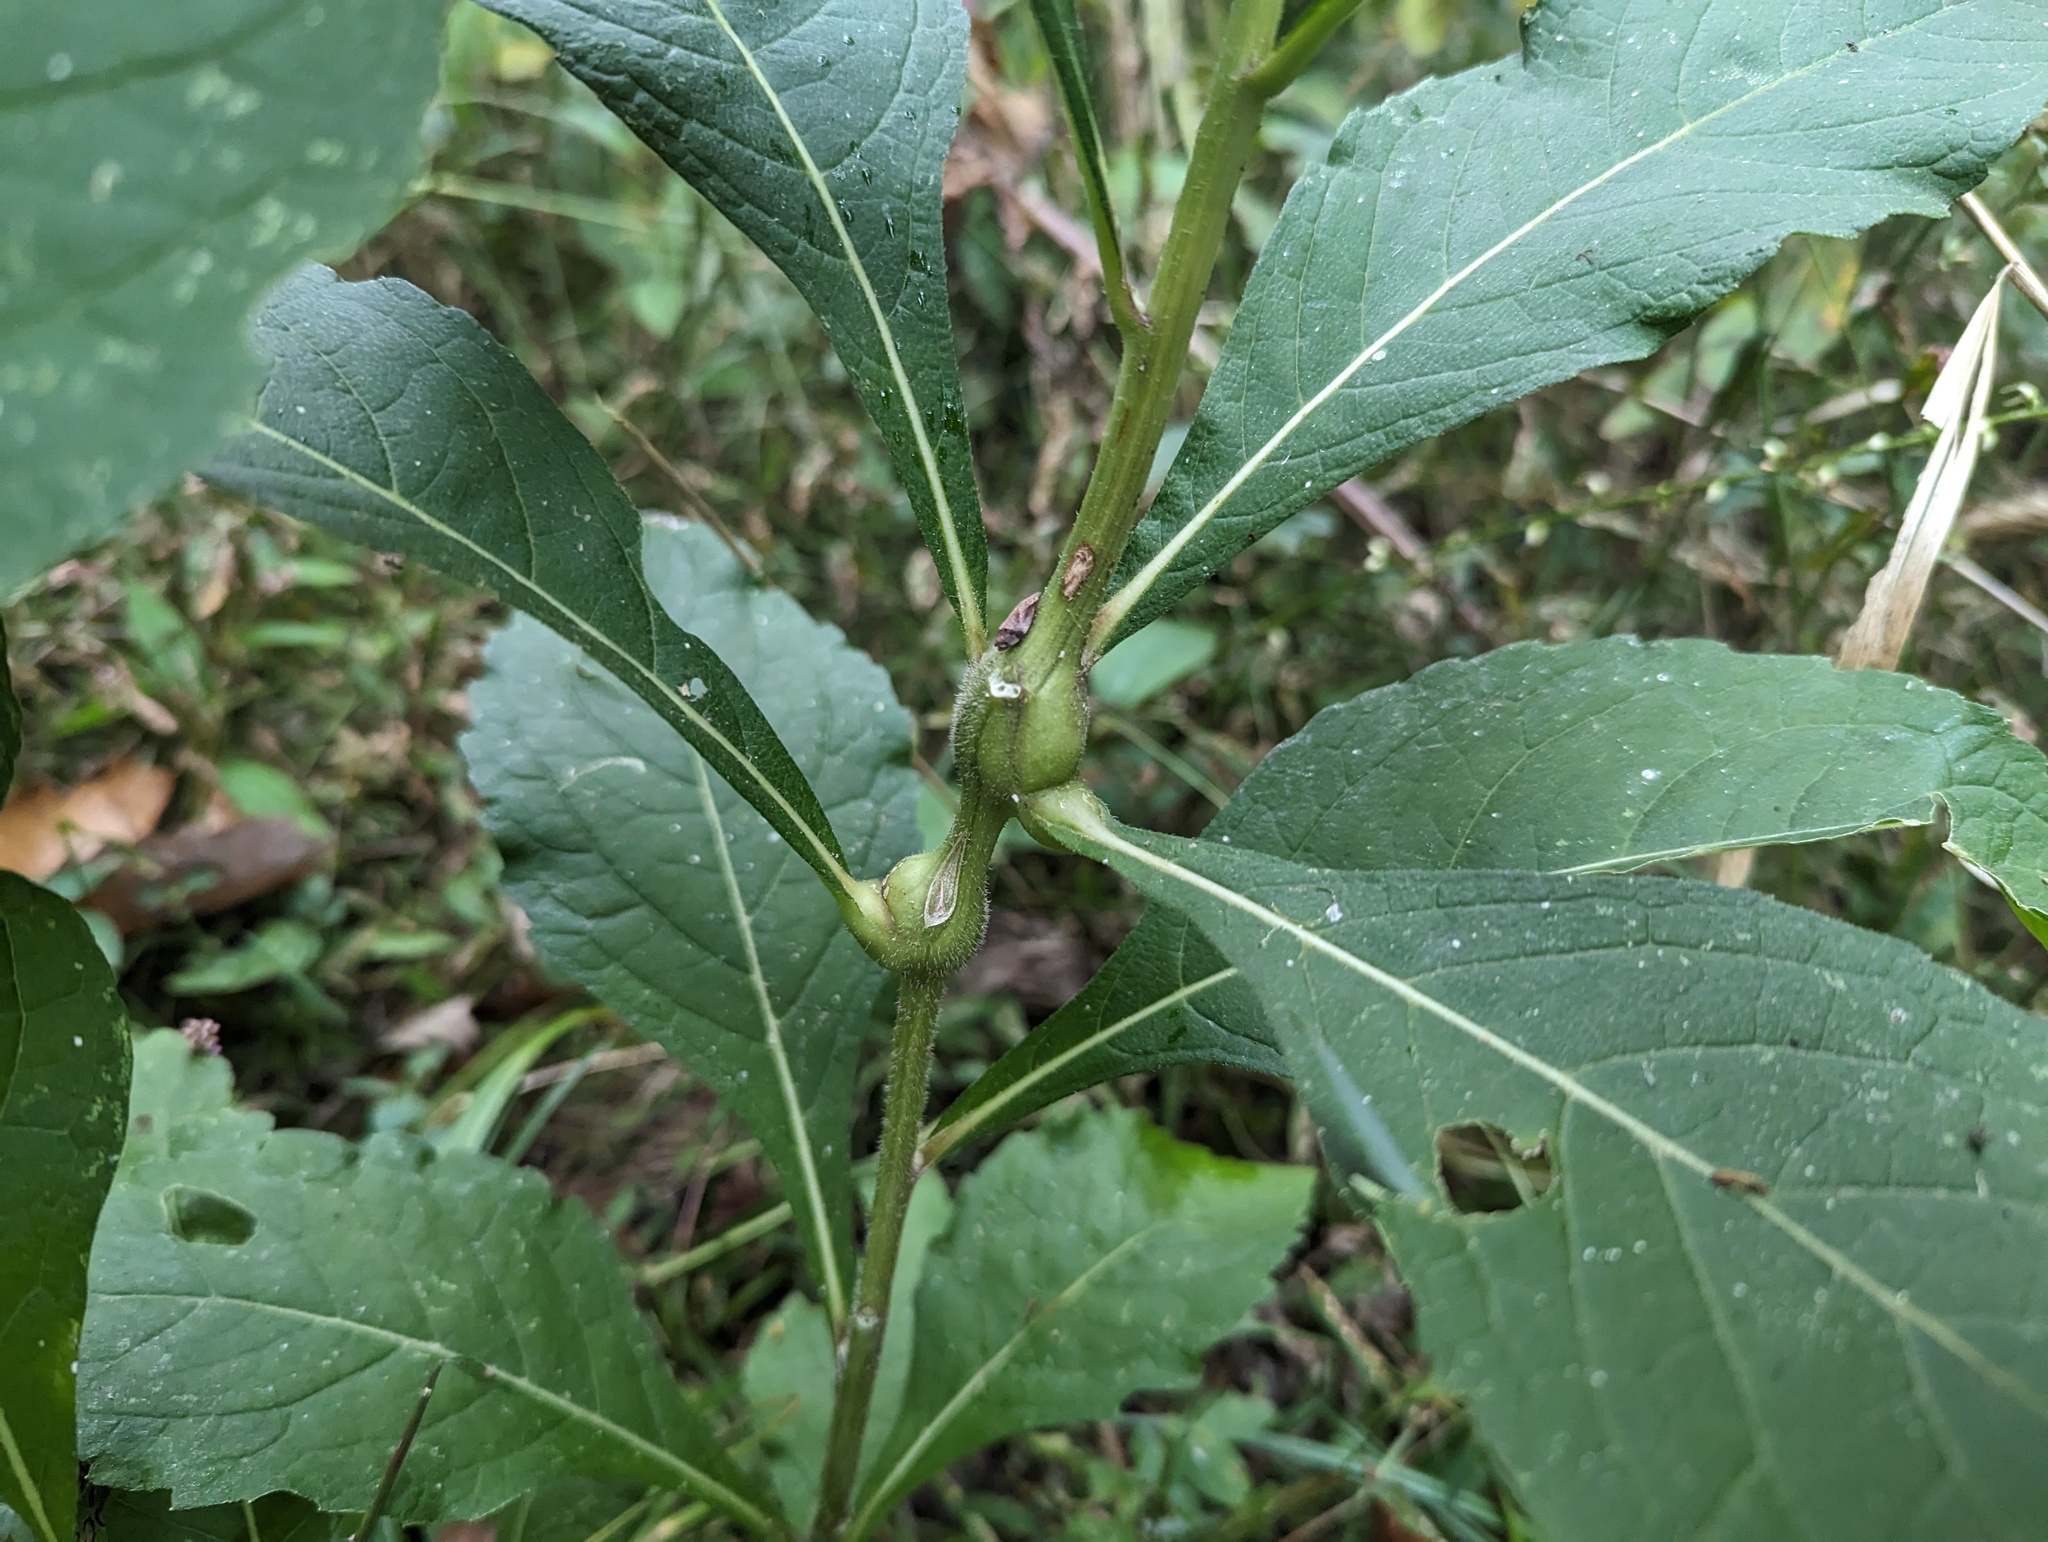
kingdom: Animalia
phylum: Arthropoda
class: Insecta
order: Diptera
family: Cecidomyiidae
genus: Neolasioptera
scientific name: Neolasioptera verbesinae
